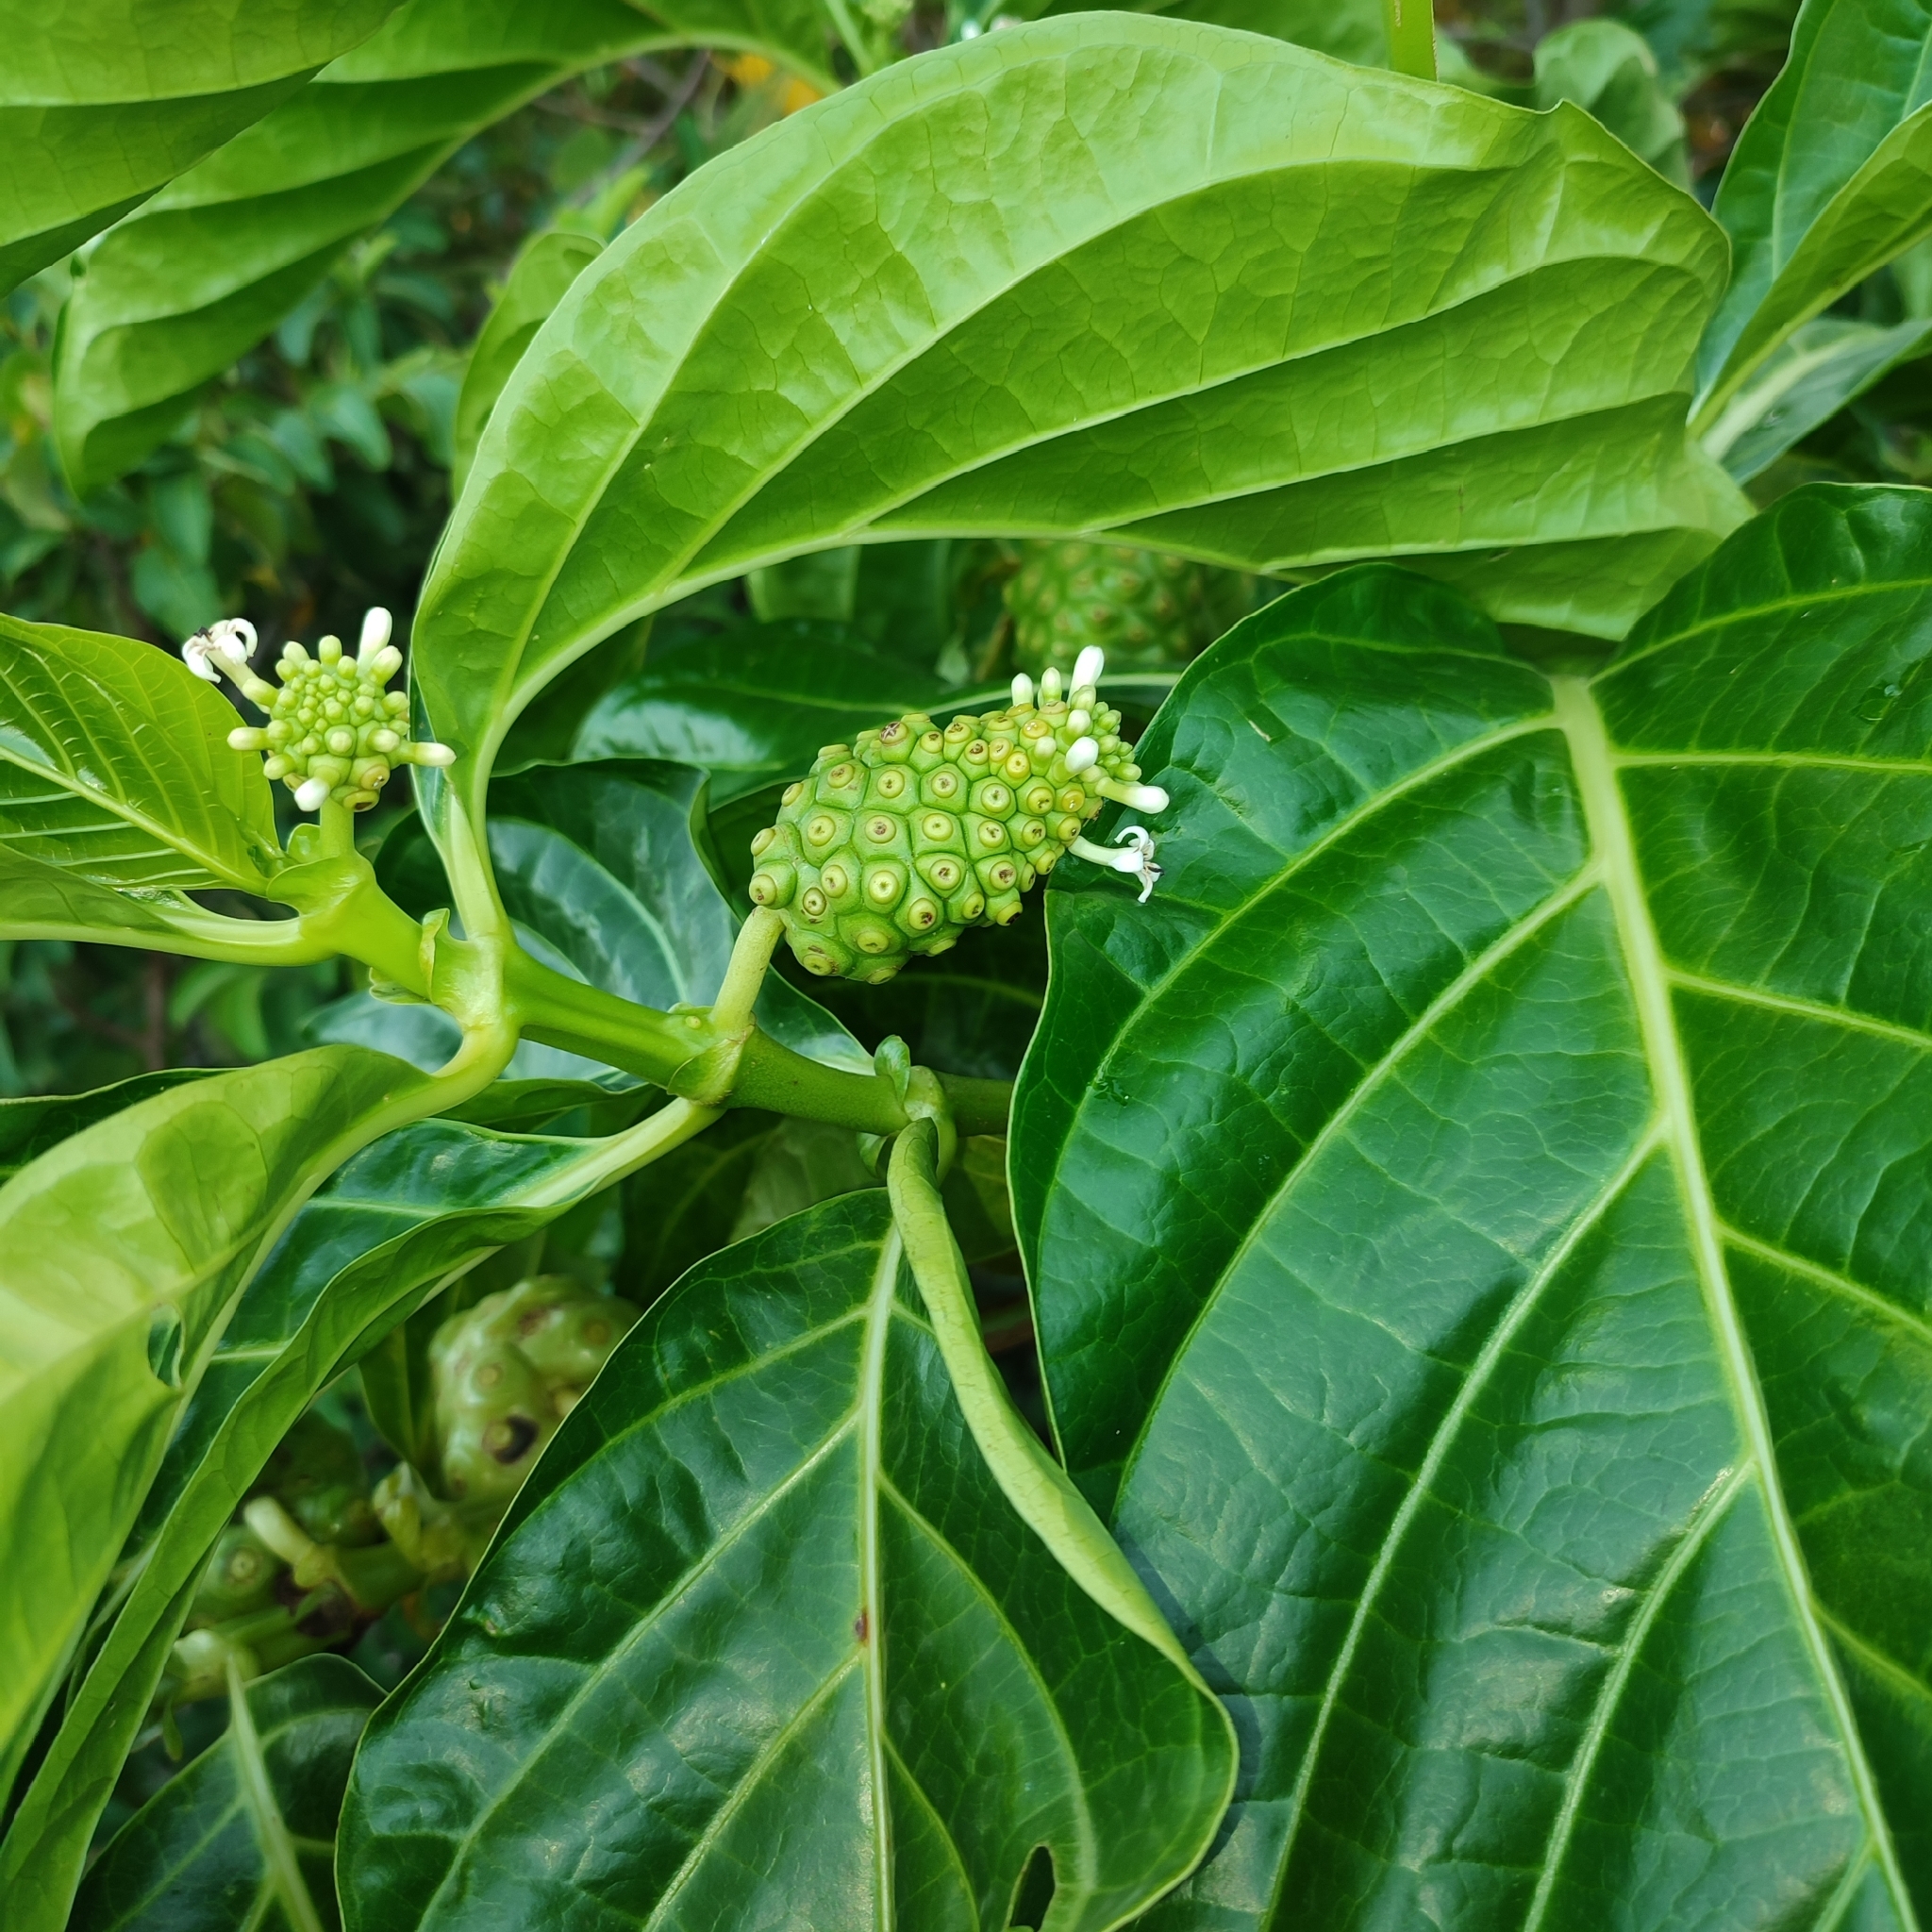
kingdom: Plantae
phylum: Tracheophyta
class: Magnoliopsida
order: Gentianales
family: Rubiaceae
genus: Morinda
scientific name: Morinda citrifolia
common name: Indian-mulberry
